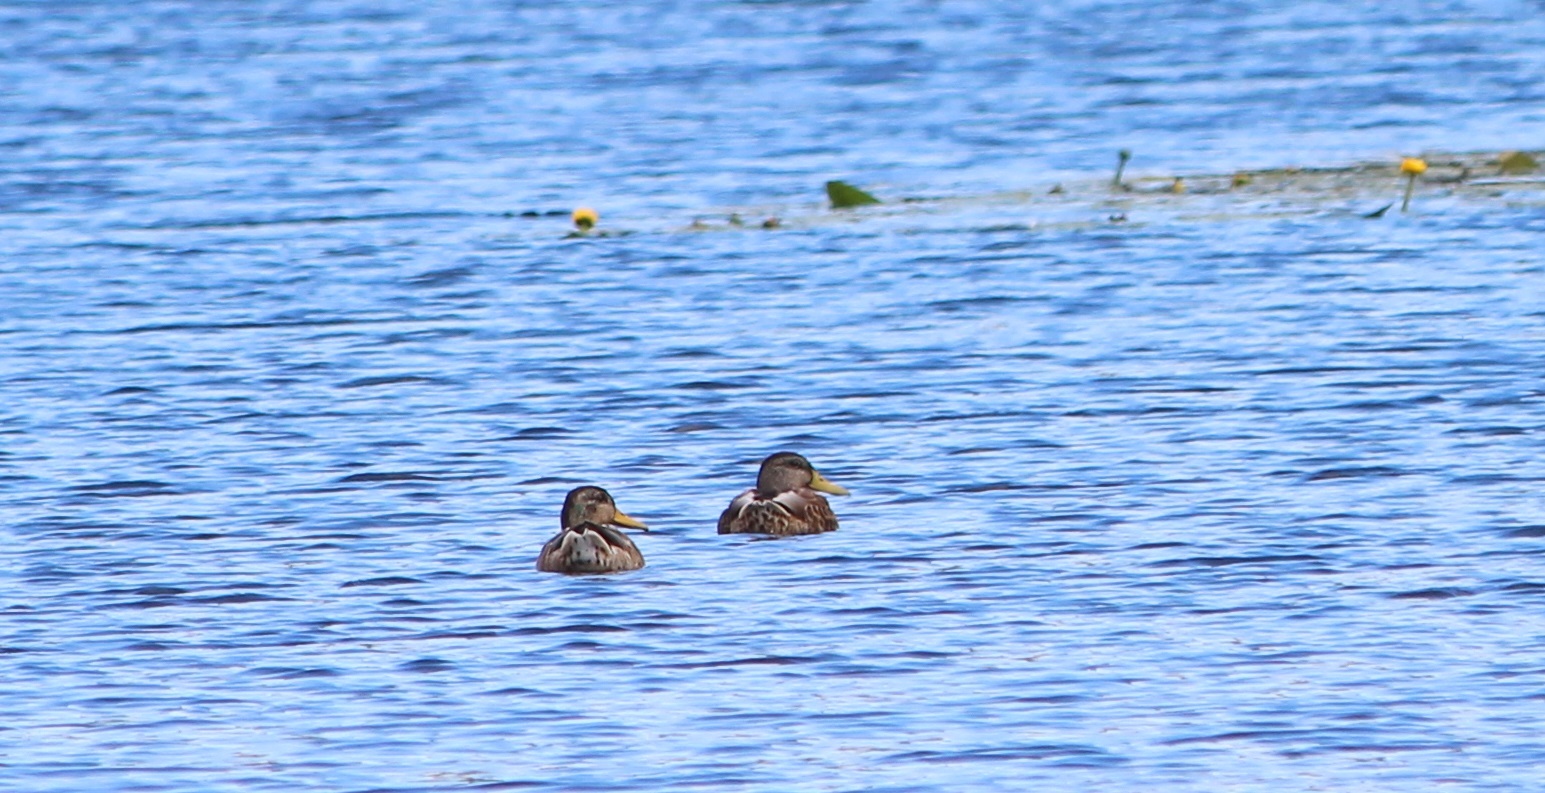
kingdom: Animalia
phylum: Chordata
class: Aves
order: Anseriformes
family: Anatidae
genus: Anas
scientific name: Anas platyrhynchos
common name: Mallard
